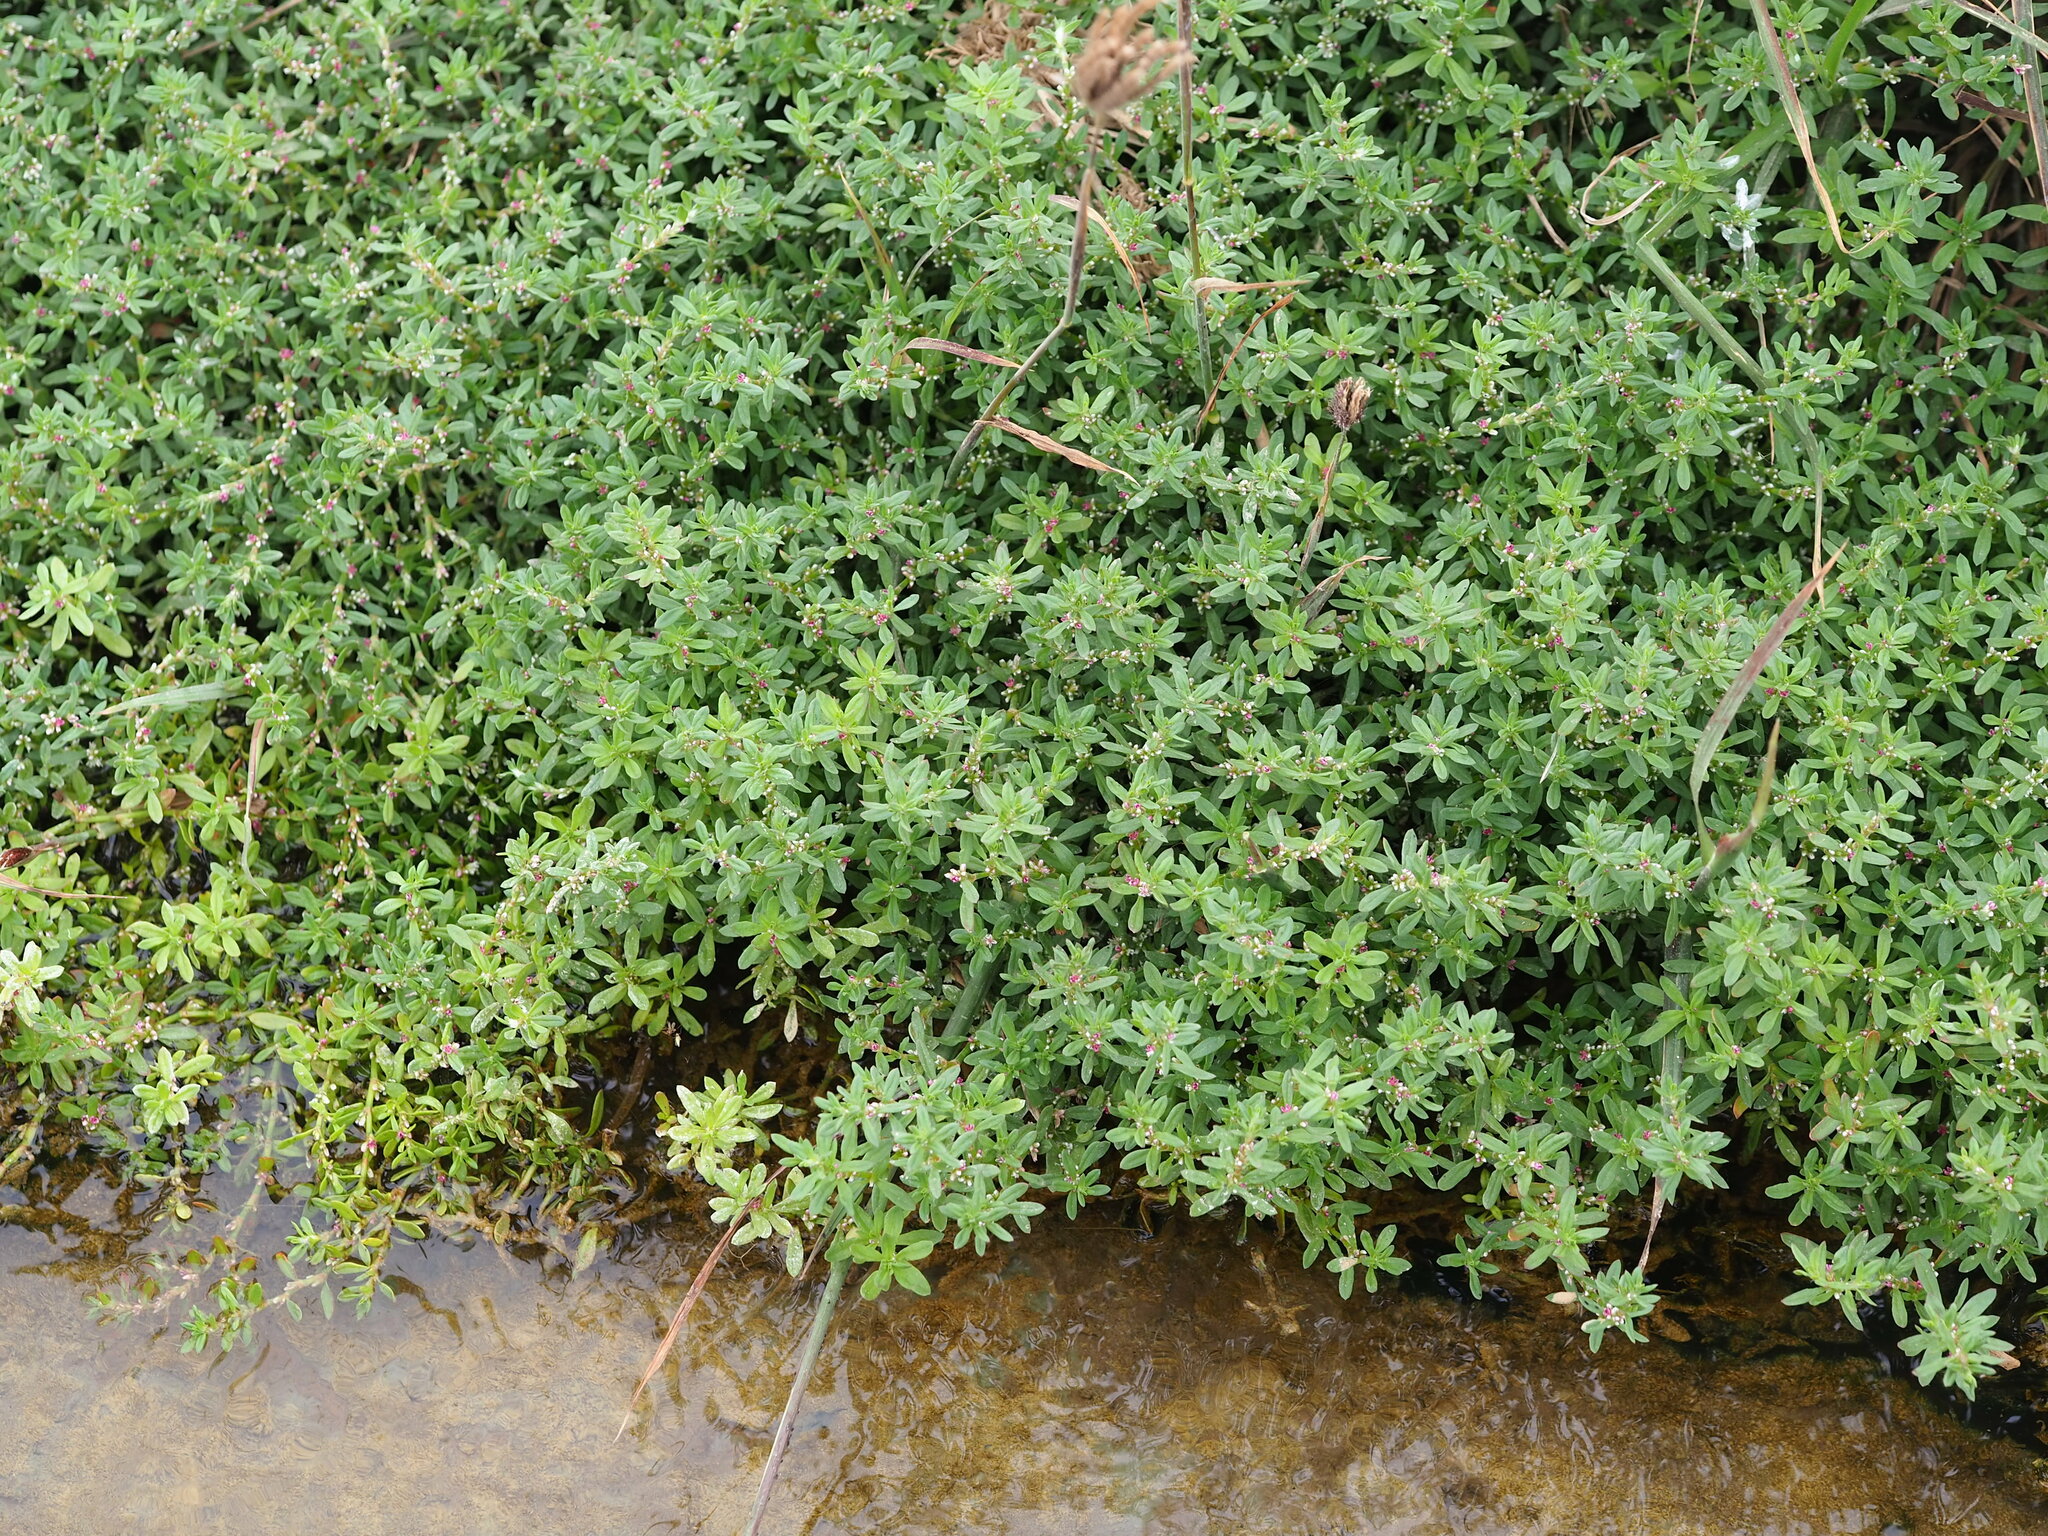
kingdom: Plantae
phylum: Tracheophyta
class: Magnoliopsida
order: Caryophyllales
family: Polygonaceae
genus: Polygonum
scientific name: Polygonum plebeium
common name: Common knotweed
